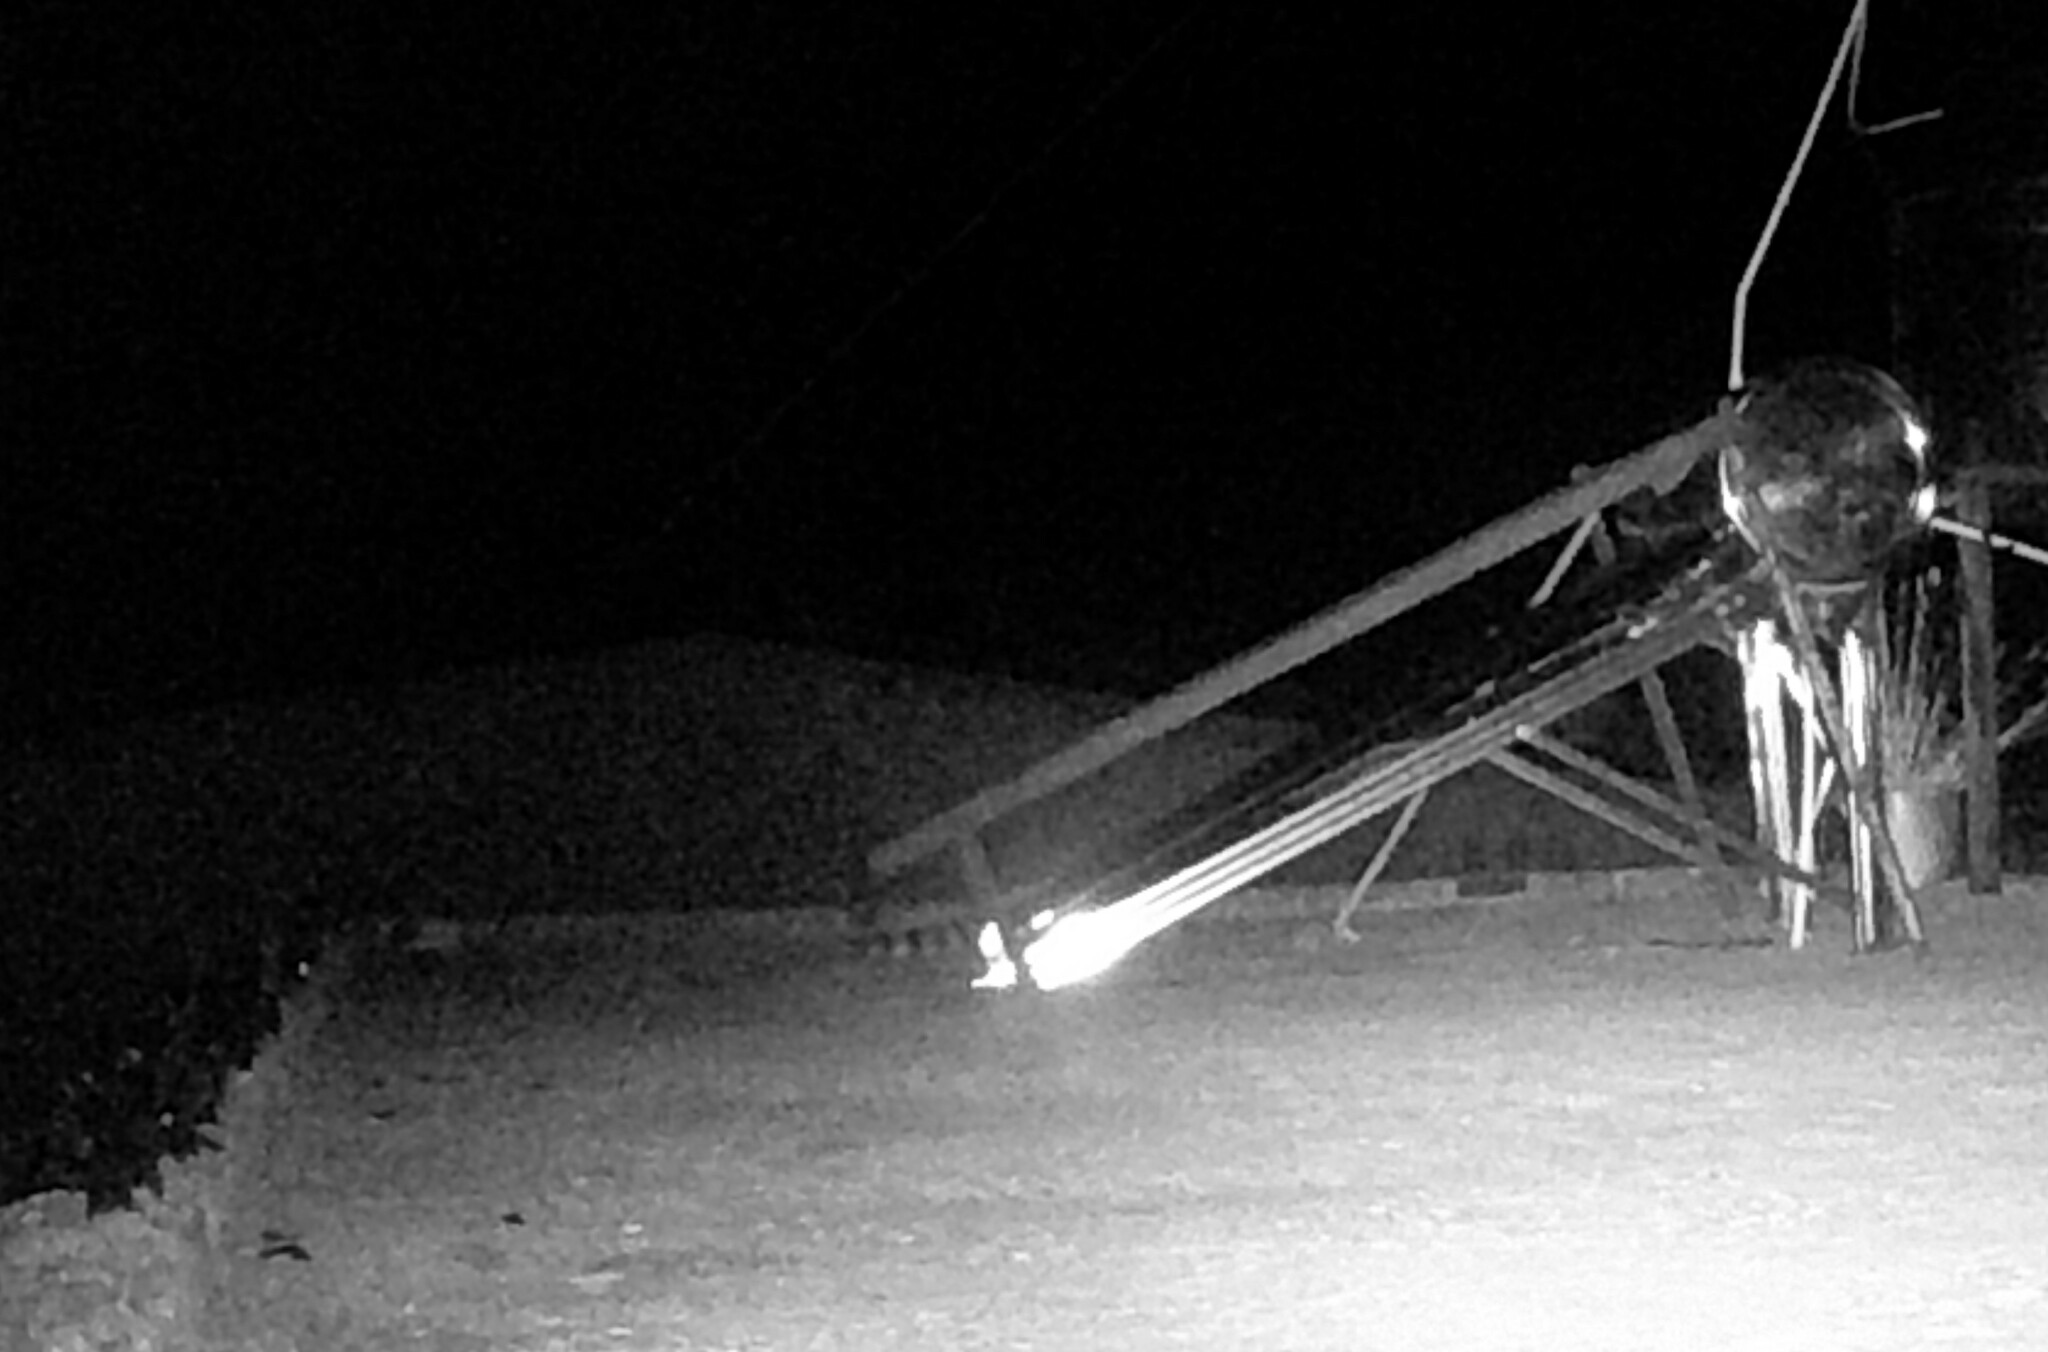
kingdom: Animalia
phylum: Chordata
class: Mammalia
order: Carnivora
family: Procyonidae
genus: Bassariscus
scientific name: Bassariscus astutus
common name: Ringtail
